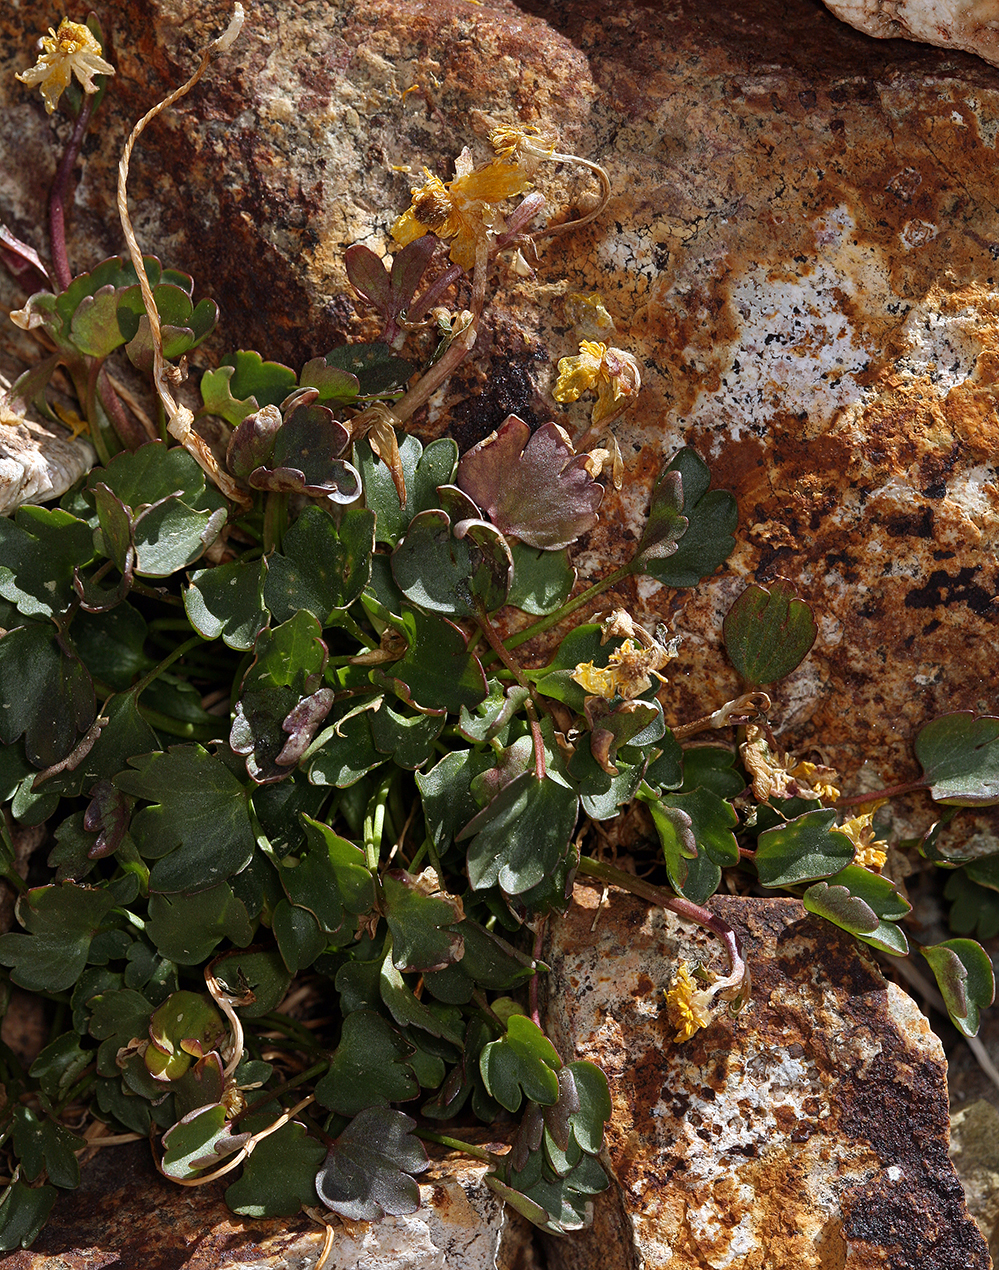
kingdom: Plantae
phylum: Tracheophyta
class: Magnoliopsida
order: Ranunculales
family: Ranunculaceae
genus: Ranunculus
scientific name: Ranunculus eschscholtzii
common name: Eschscholtz's buttercup
